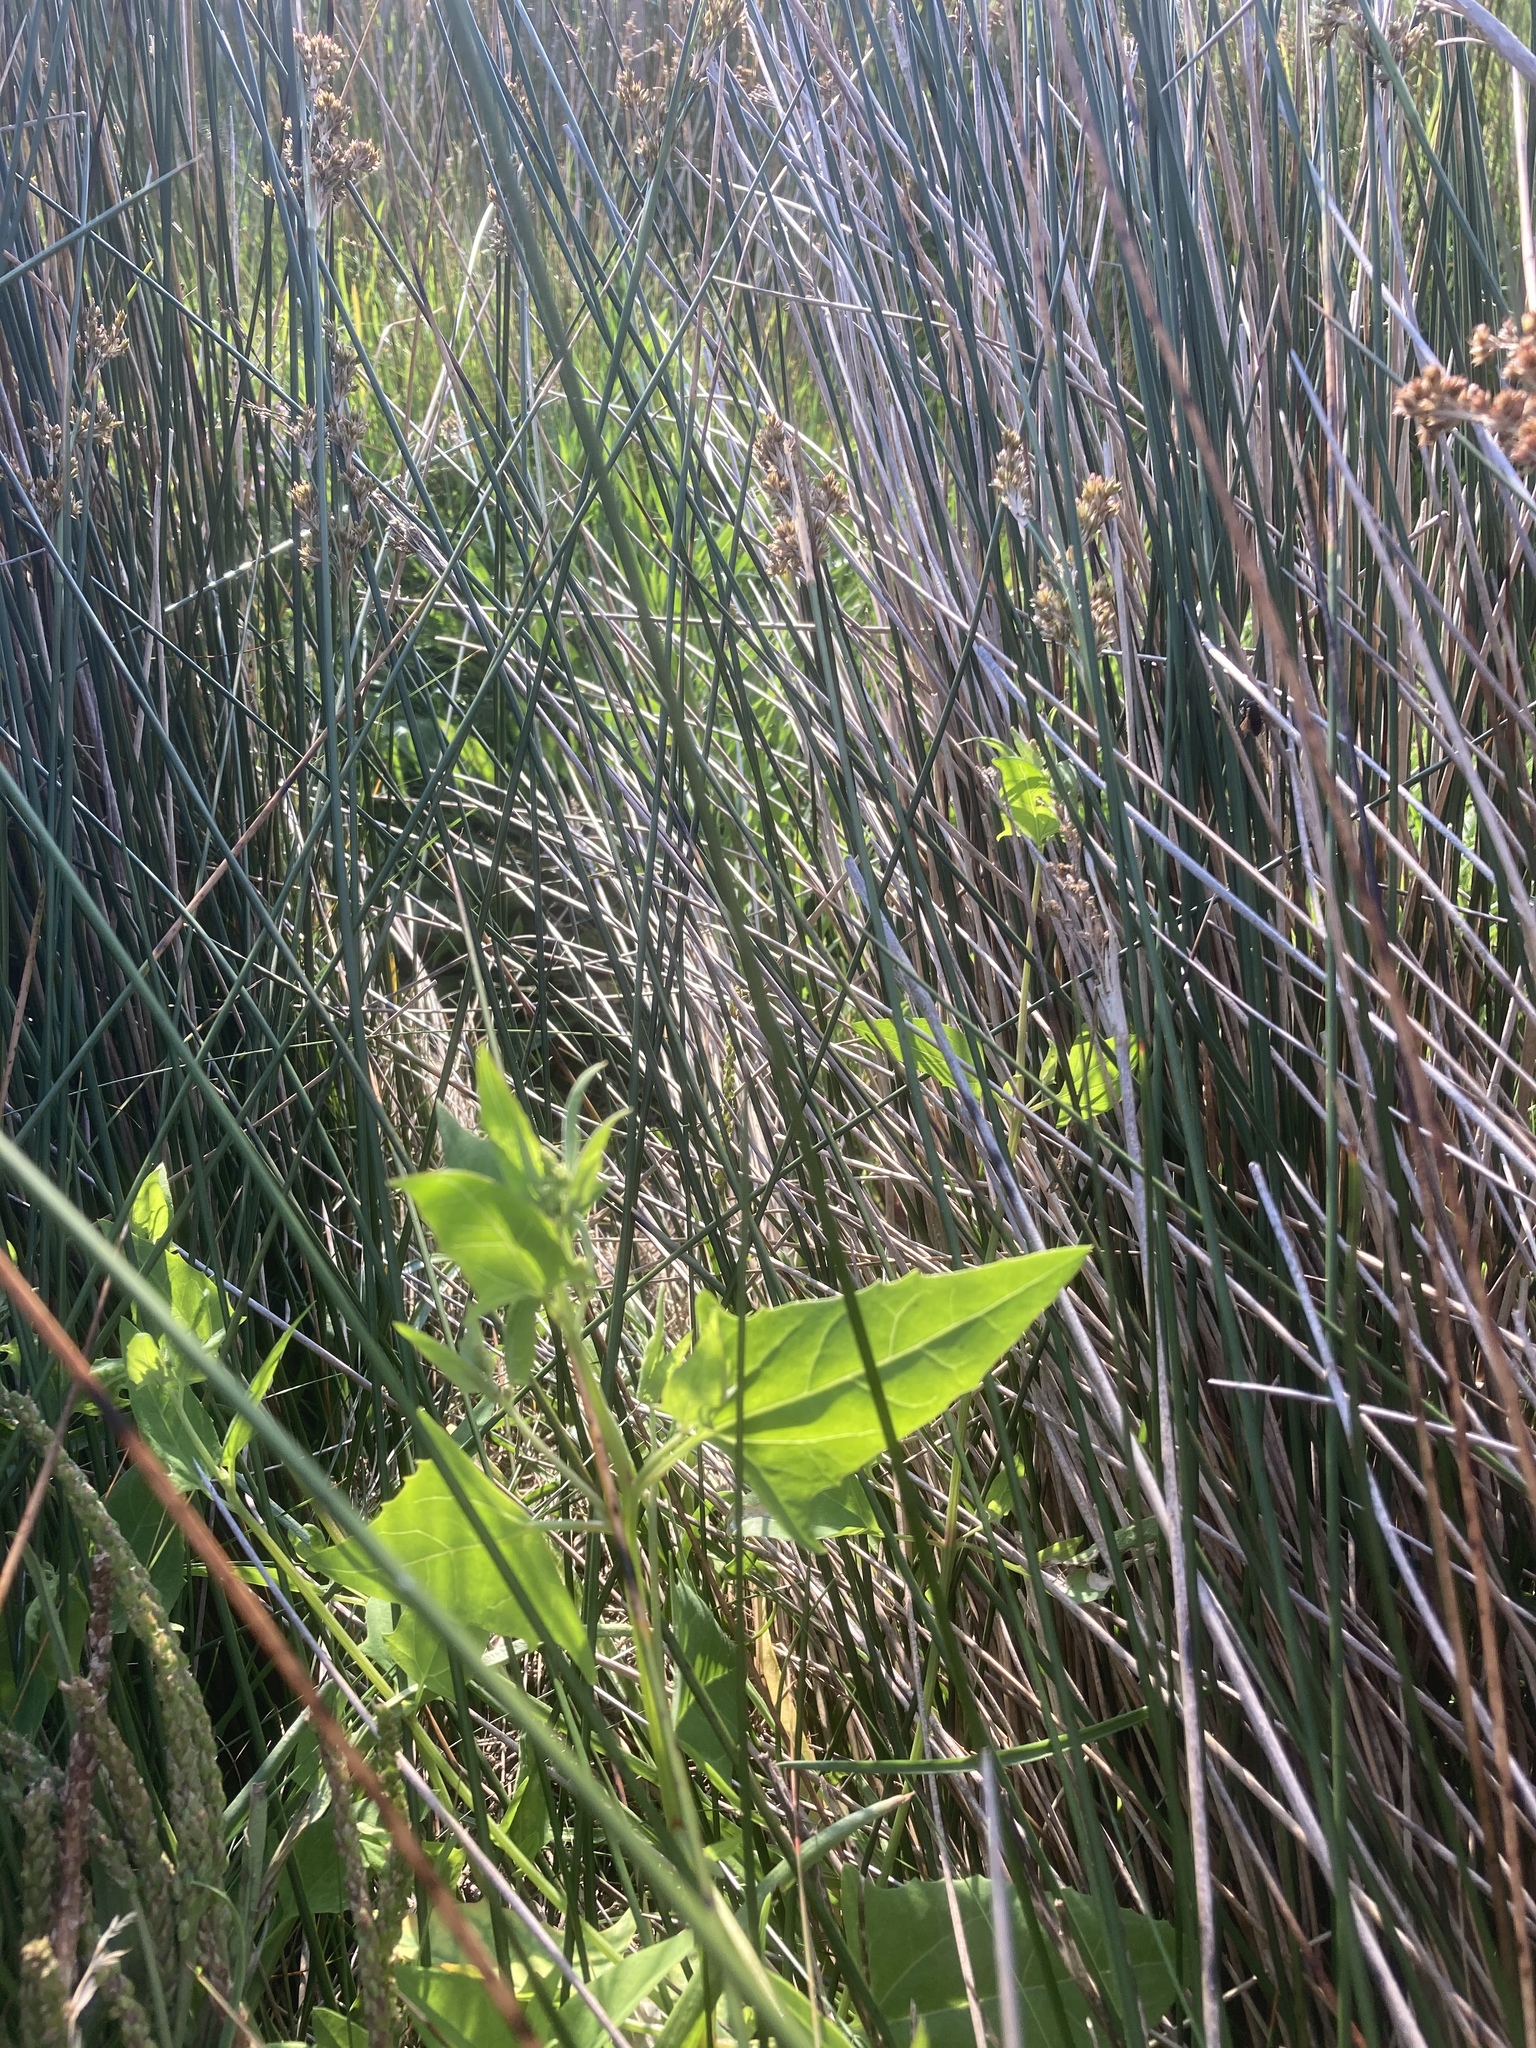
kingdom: Plantae
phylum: Tracheophyta
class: Magnoliopsida
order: Caryophyllales
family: Amaranthaceae
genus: Atriplex
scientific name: Atriplex prostrata
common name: Spear-leaved orache
